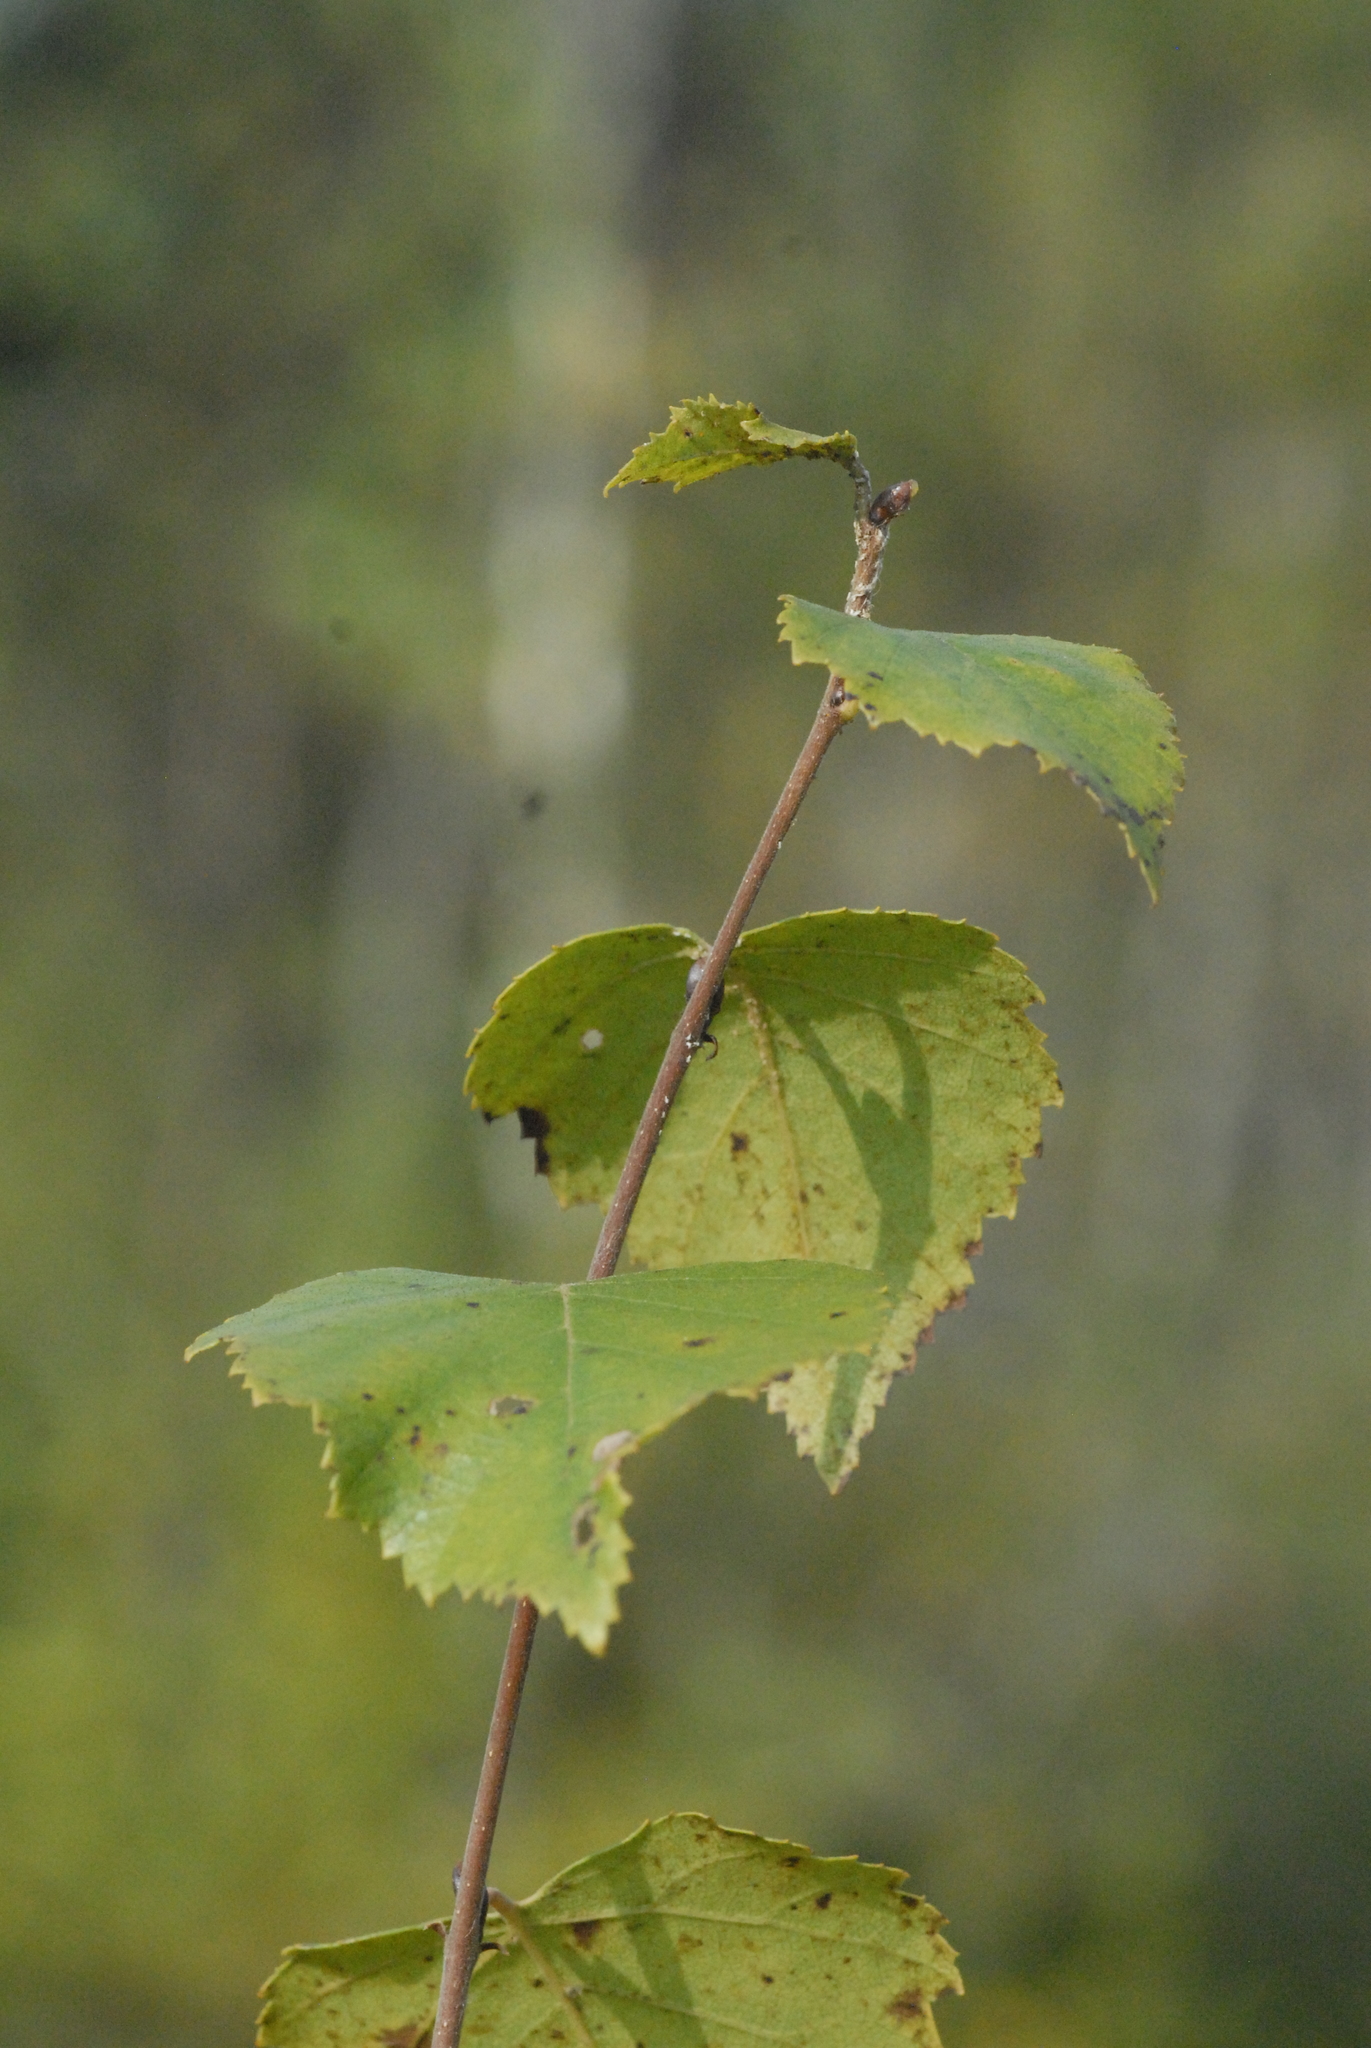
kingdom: Plantae
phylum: Tracheophyta
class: Magnoliopsida
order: Fagales
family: Betulaceae
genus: Betula
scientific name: Betula pendula
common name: Silver birch
